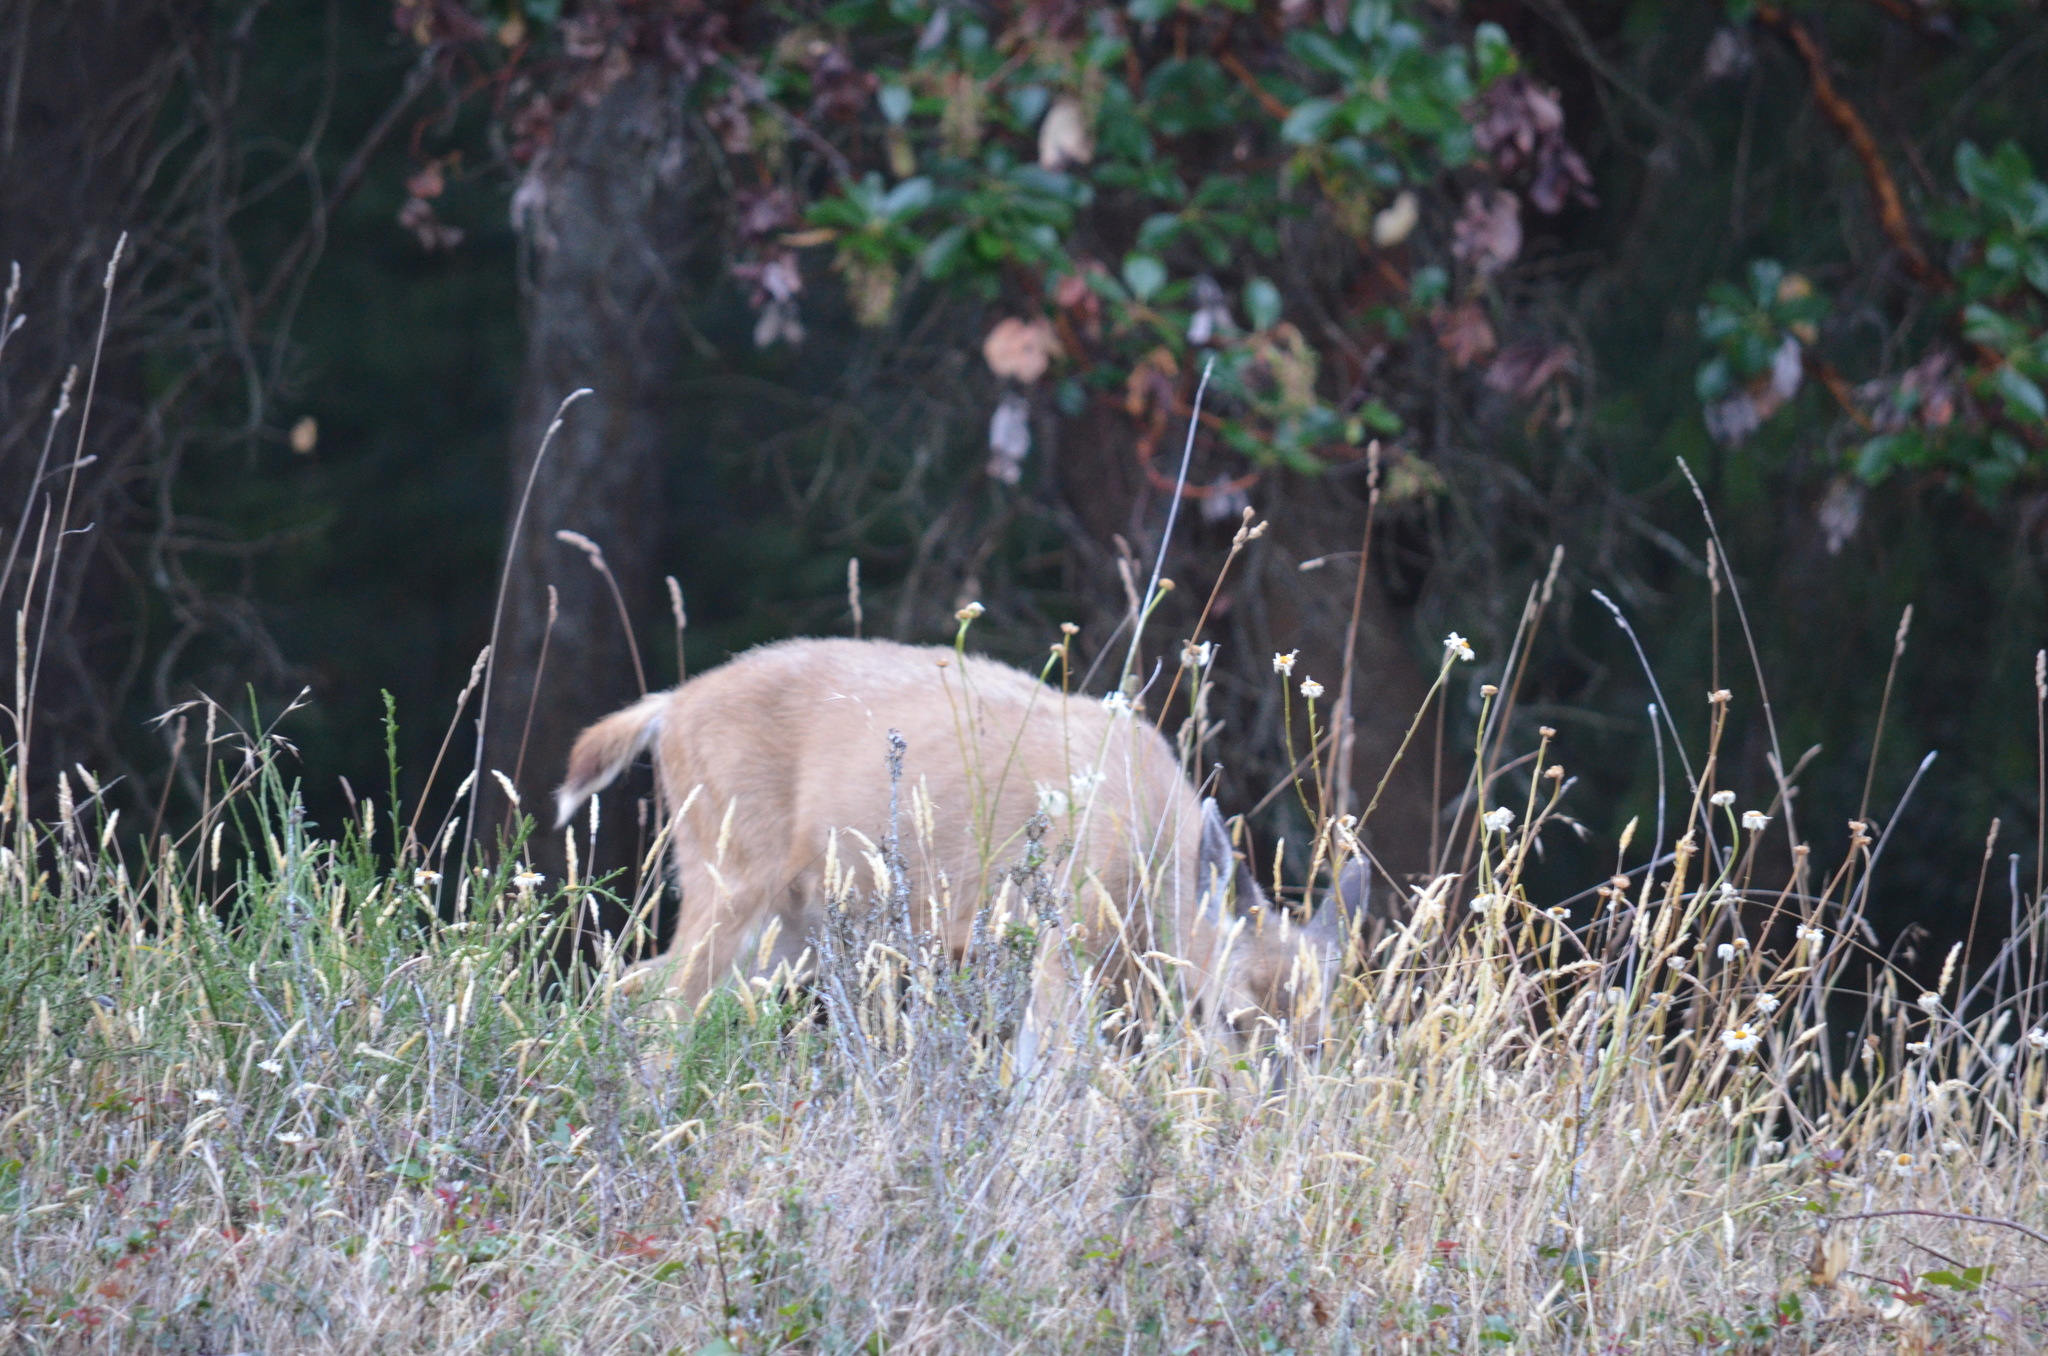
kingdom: Animalia
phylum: Chordata
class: Mammalia
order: Artiodactyla
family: Cervidae
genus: Odocoileus
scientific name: Odocoileus hemionus
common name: Mule deer
